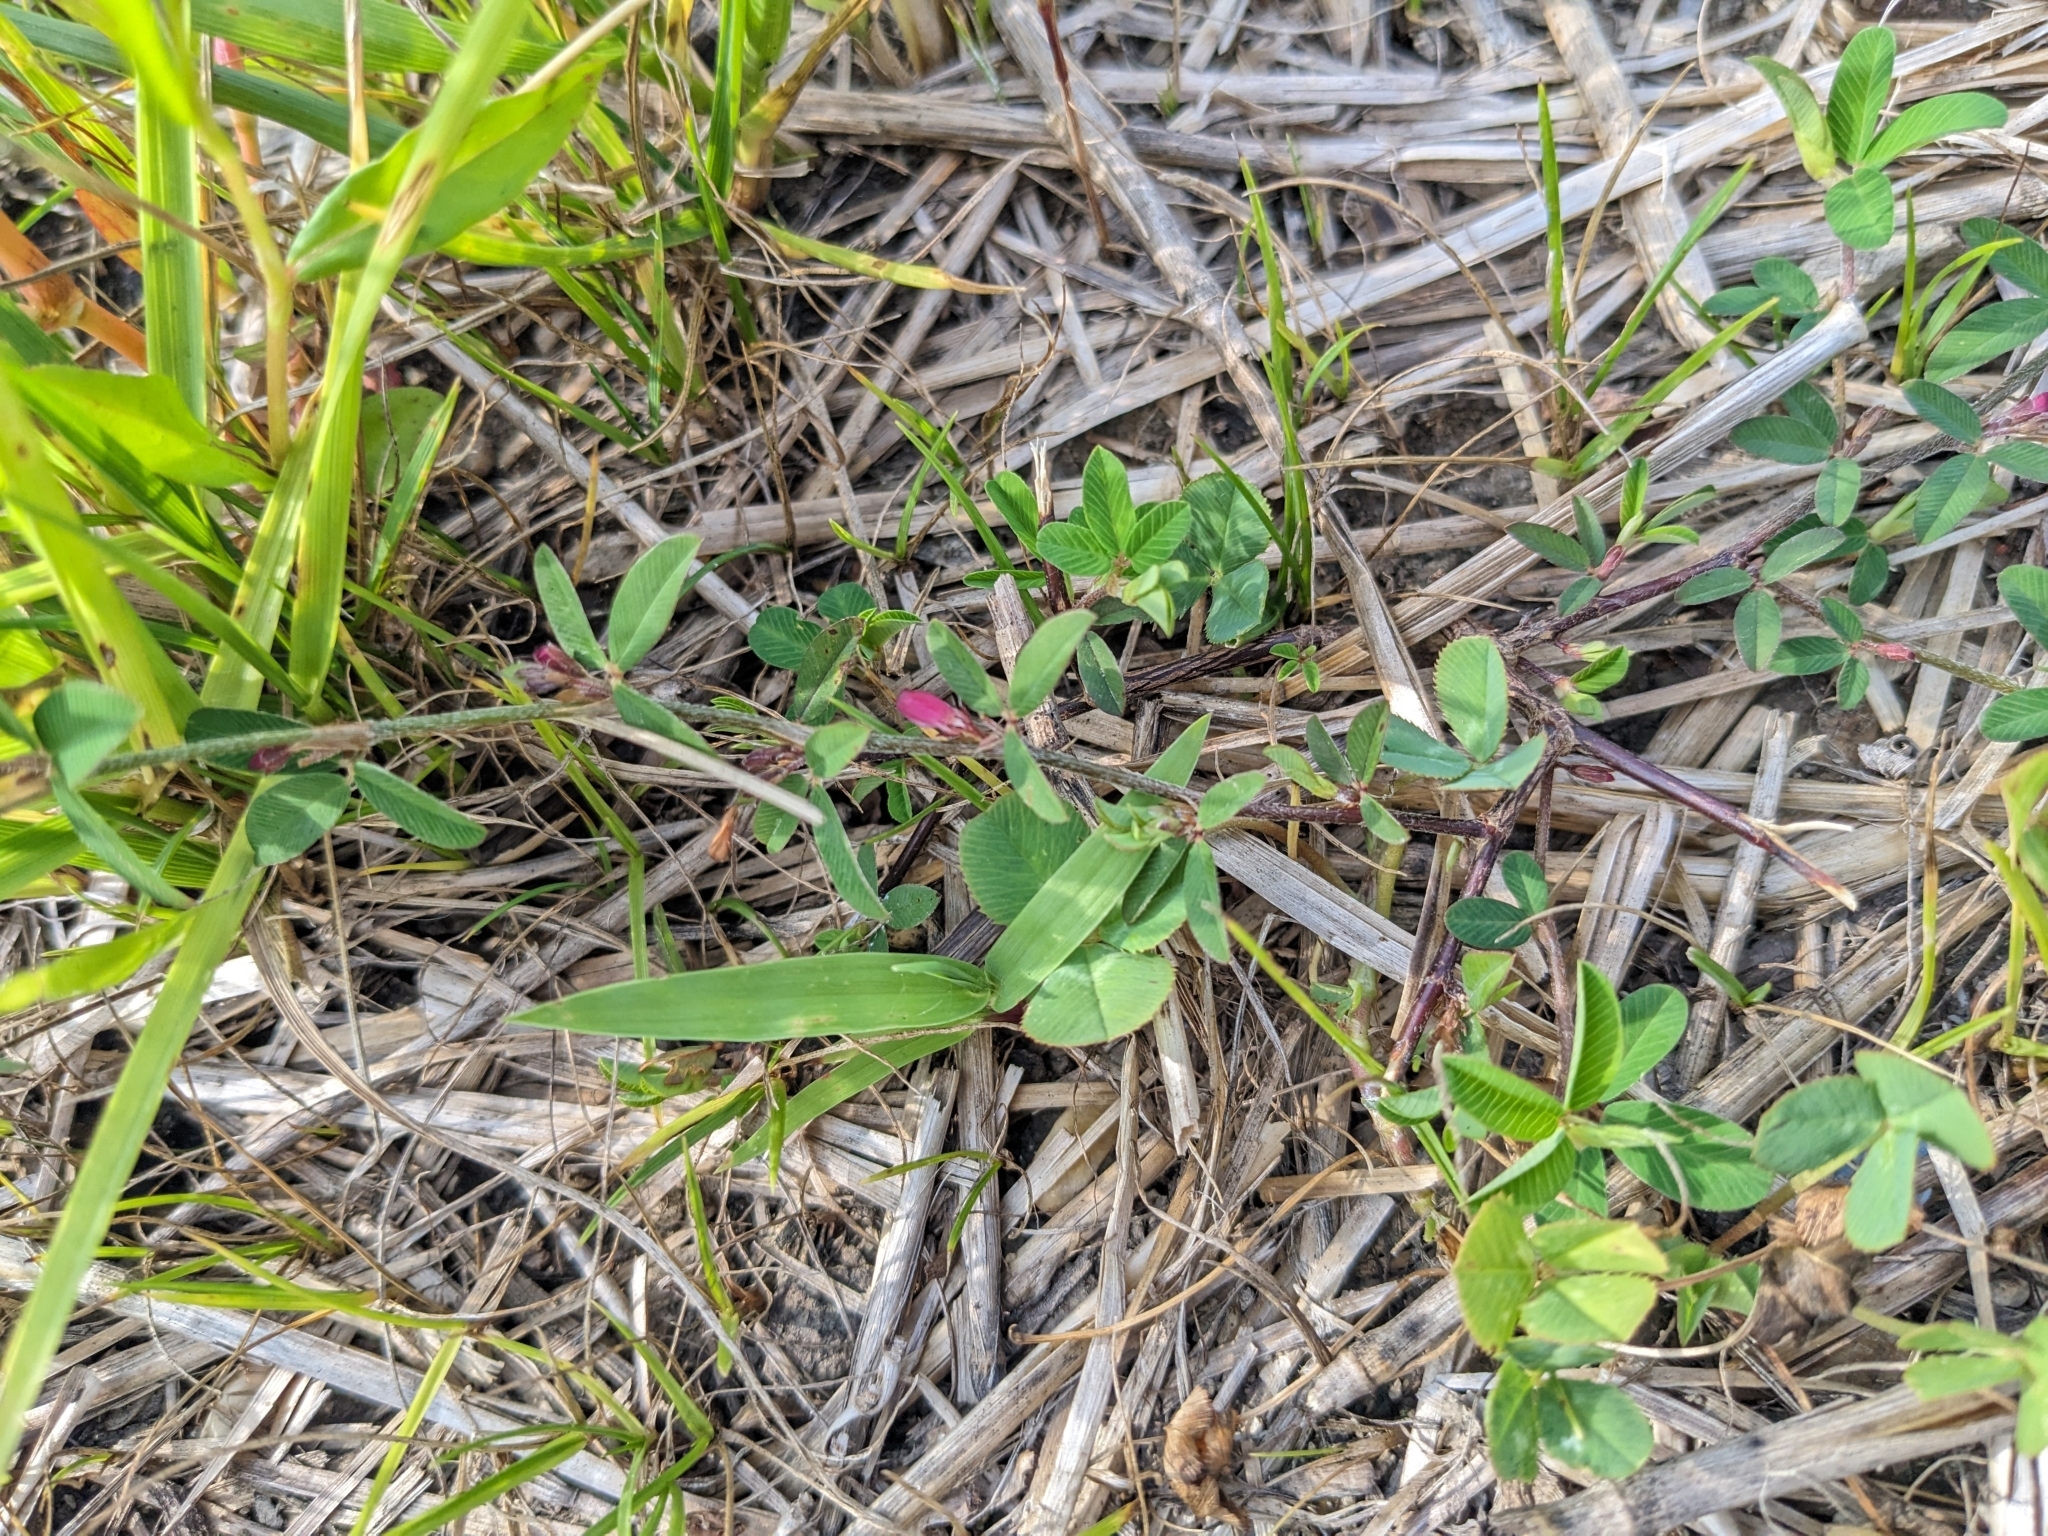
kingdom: Plantae
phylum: Tracheophyta
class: Magnoliopsida
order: Fabales
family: Fabaceae
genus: Kummerowia
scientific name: Kummerowia striata
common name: Japanese clover
